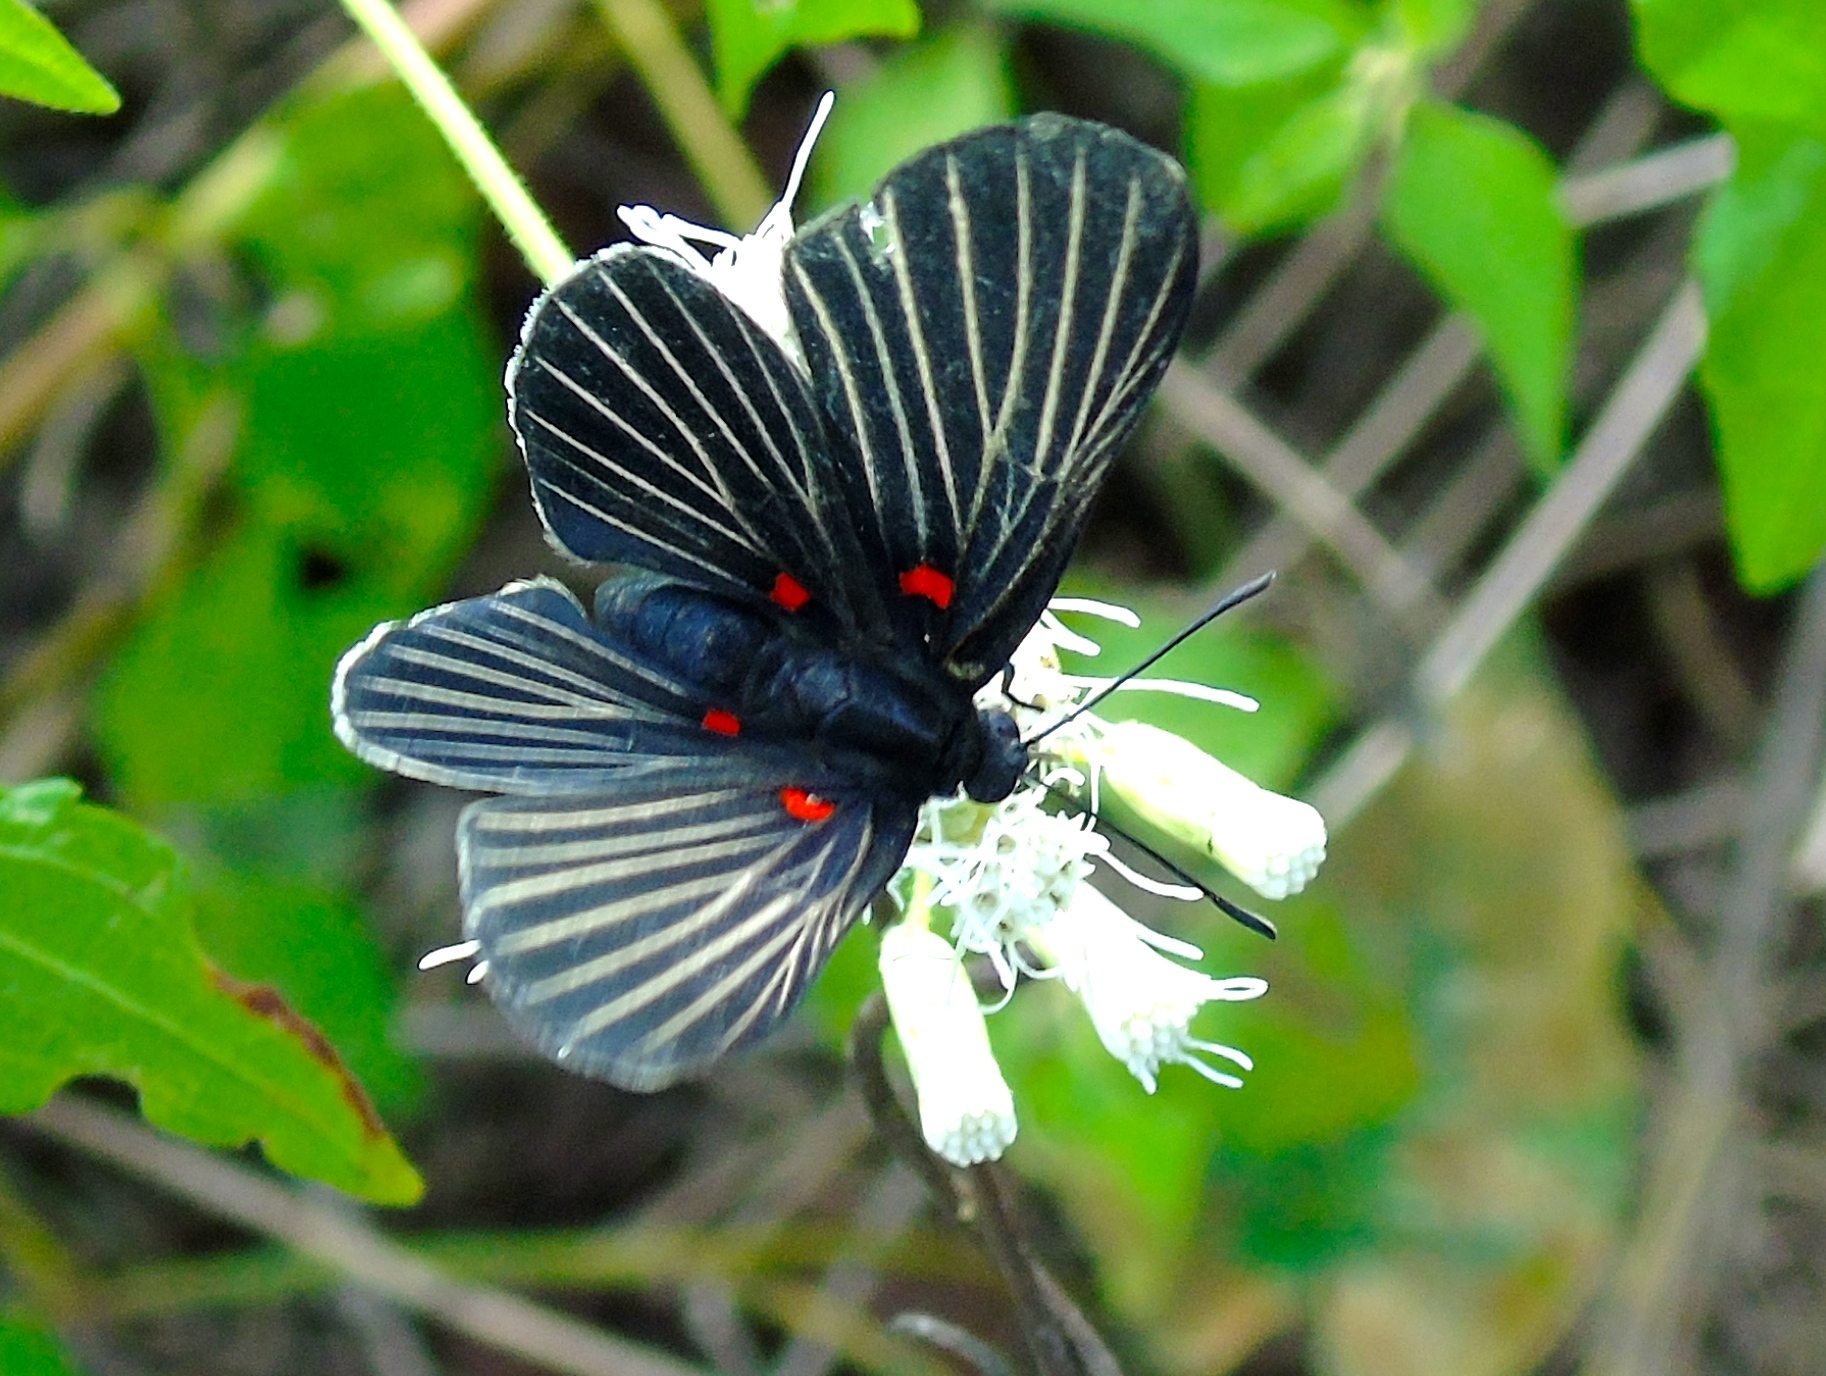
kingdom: Animalia
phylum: Arthropoda
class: Insecta
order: Lepidoptera
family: Lycaenidae
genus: Melanis
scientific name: Melanis
